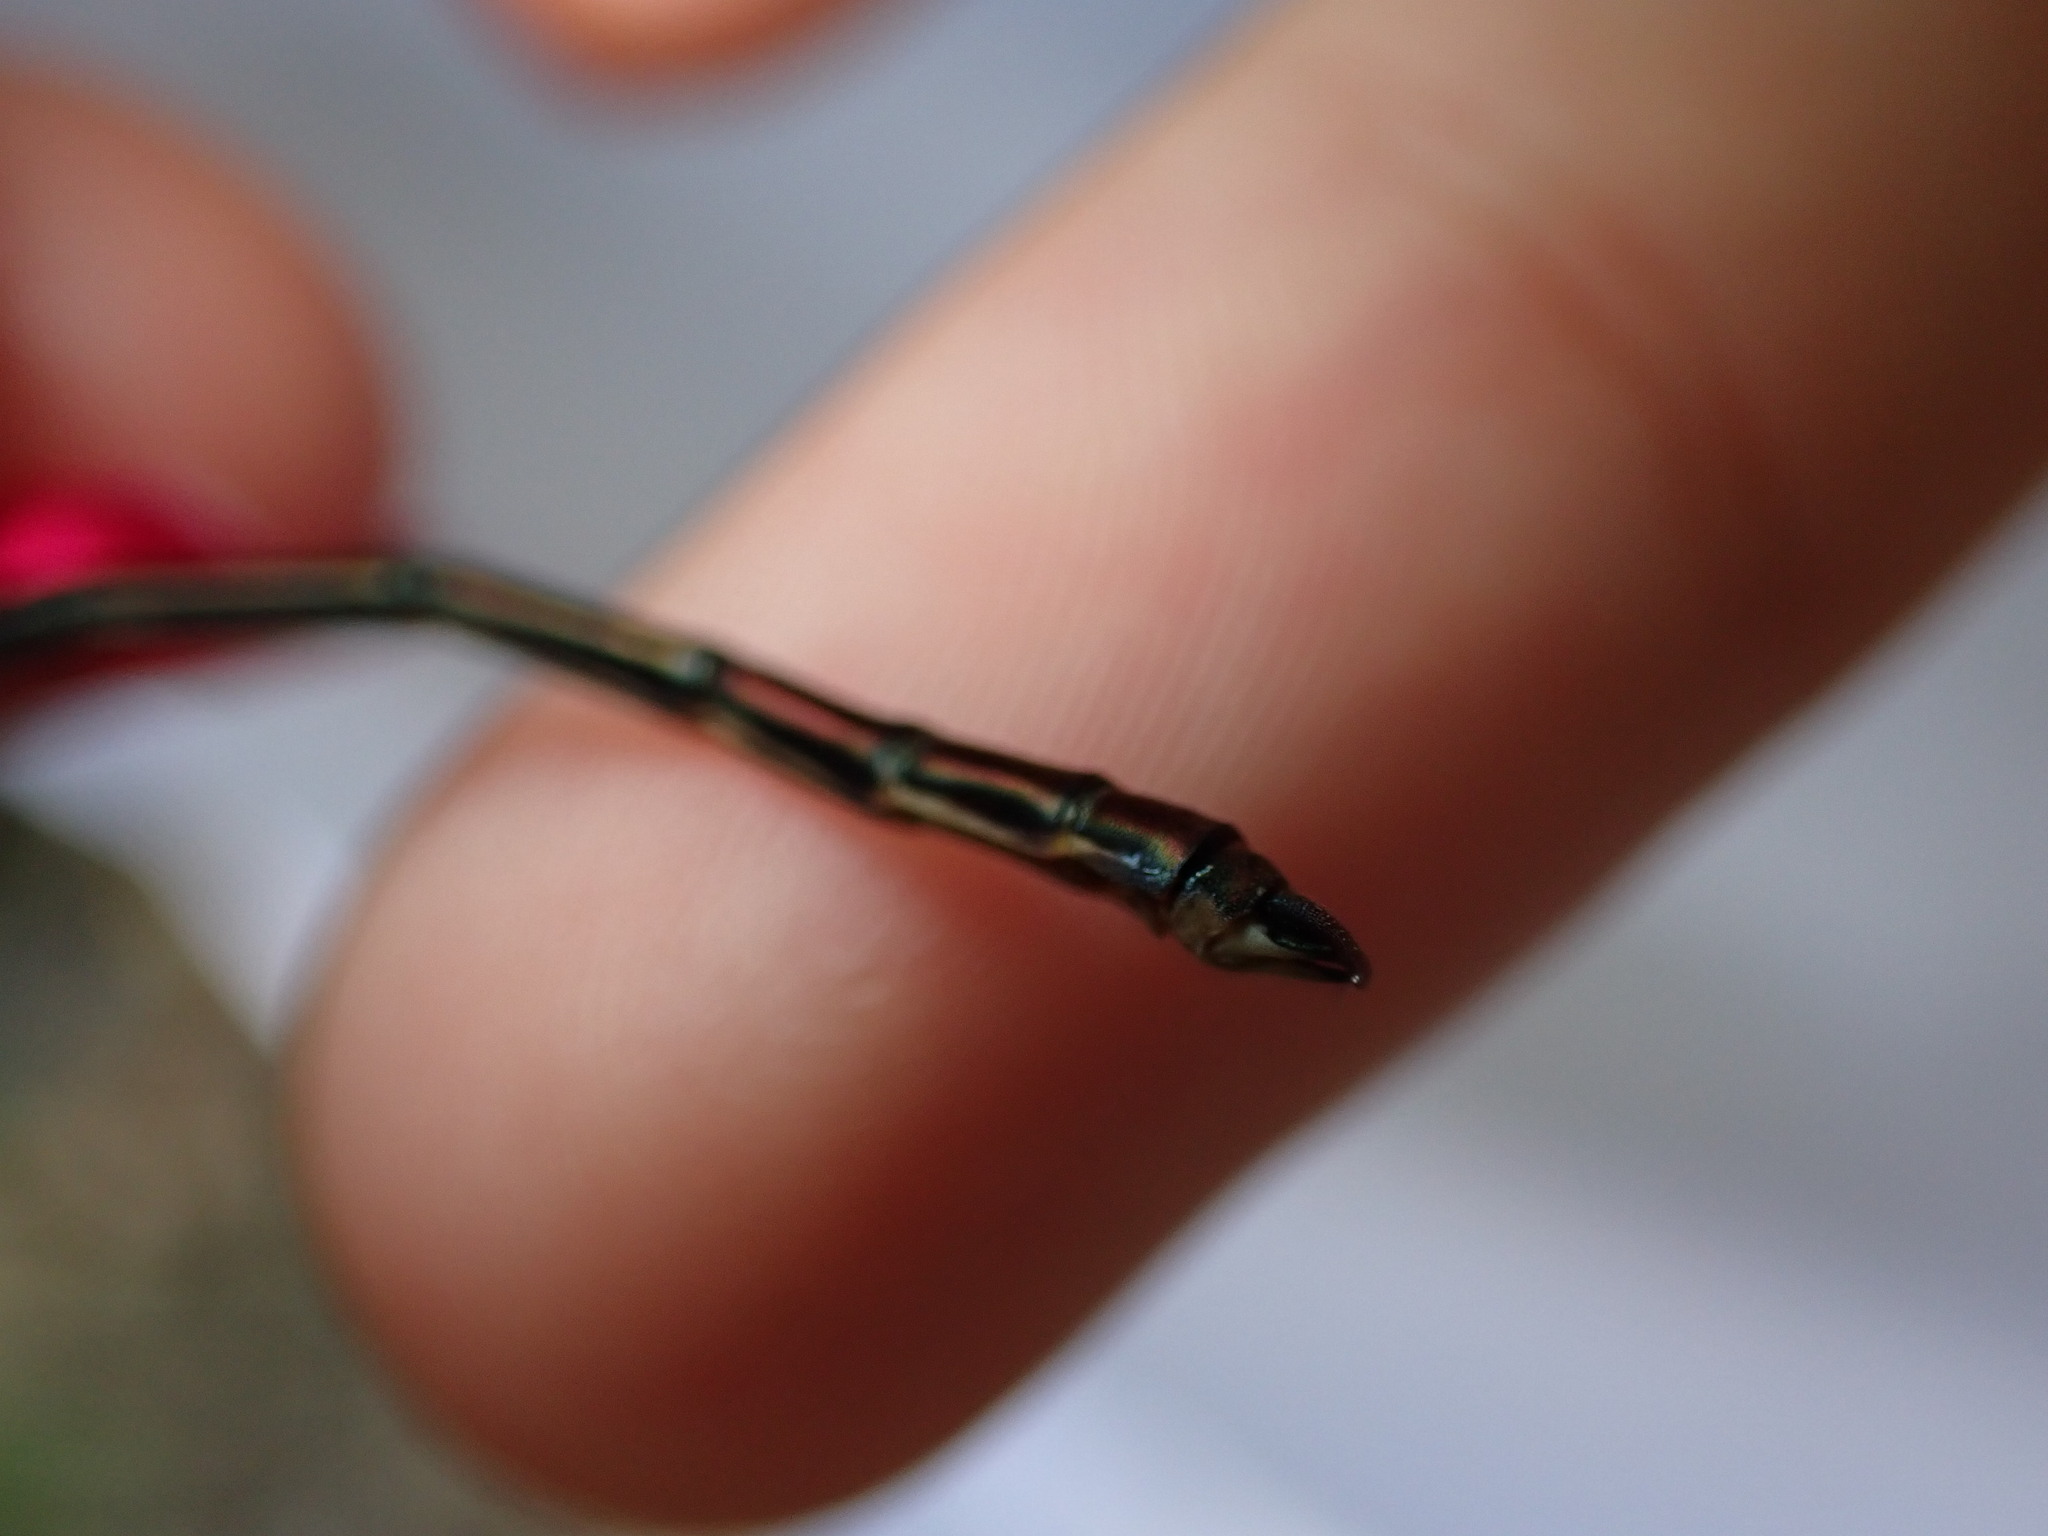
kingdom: Animalia
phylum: Arthropoda
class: Insecta
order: Odonata
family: Calopterygidae
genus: Calopteryx
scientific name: Calopteryx haemorrhoidalis
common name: Copper demoiselle
